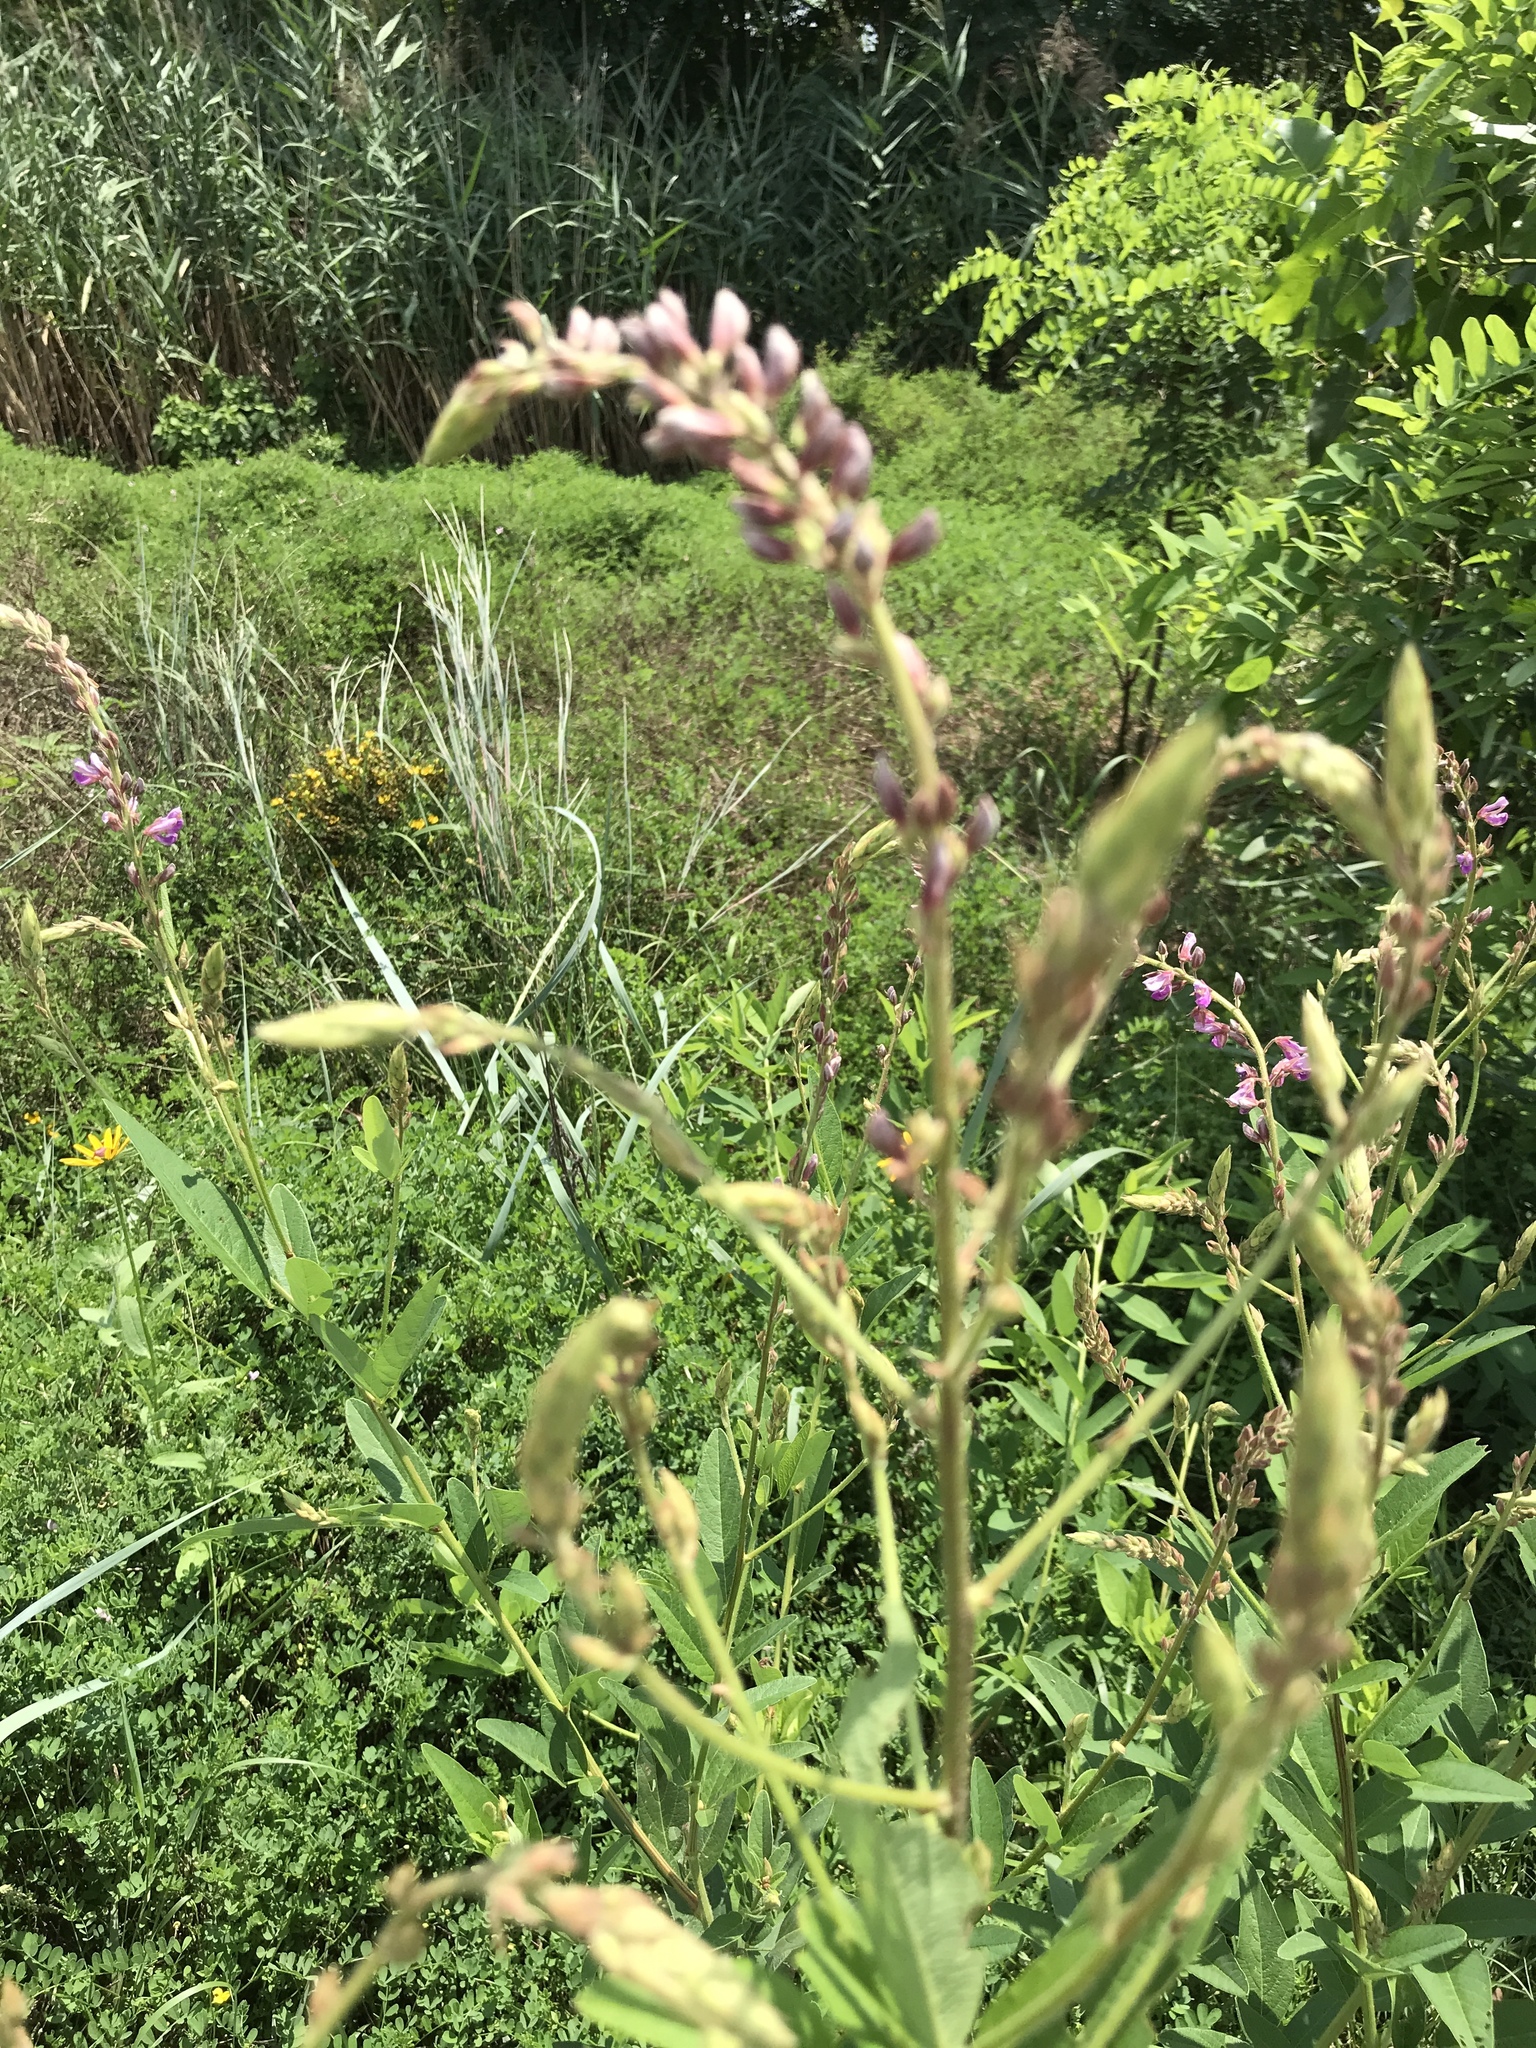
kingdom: Plantae
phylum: Tracheophyta
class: Magnoliopsida
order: Fabales
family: Fabaceae
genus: Desmodium
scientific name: Desmodium canadense
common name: Canada tick-trefoil
